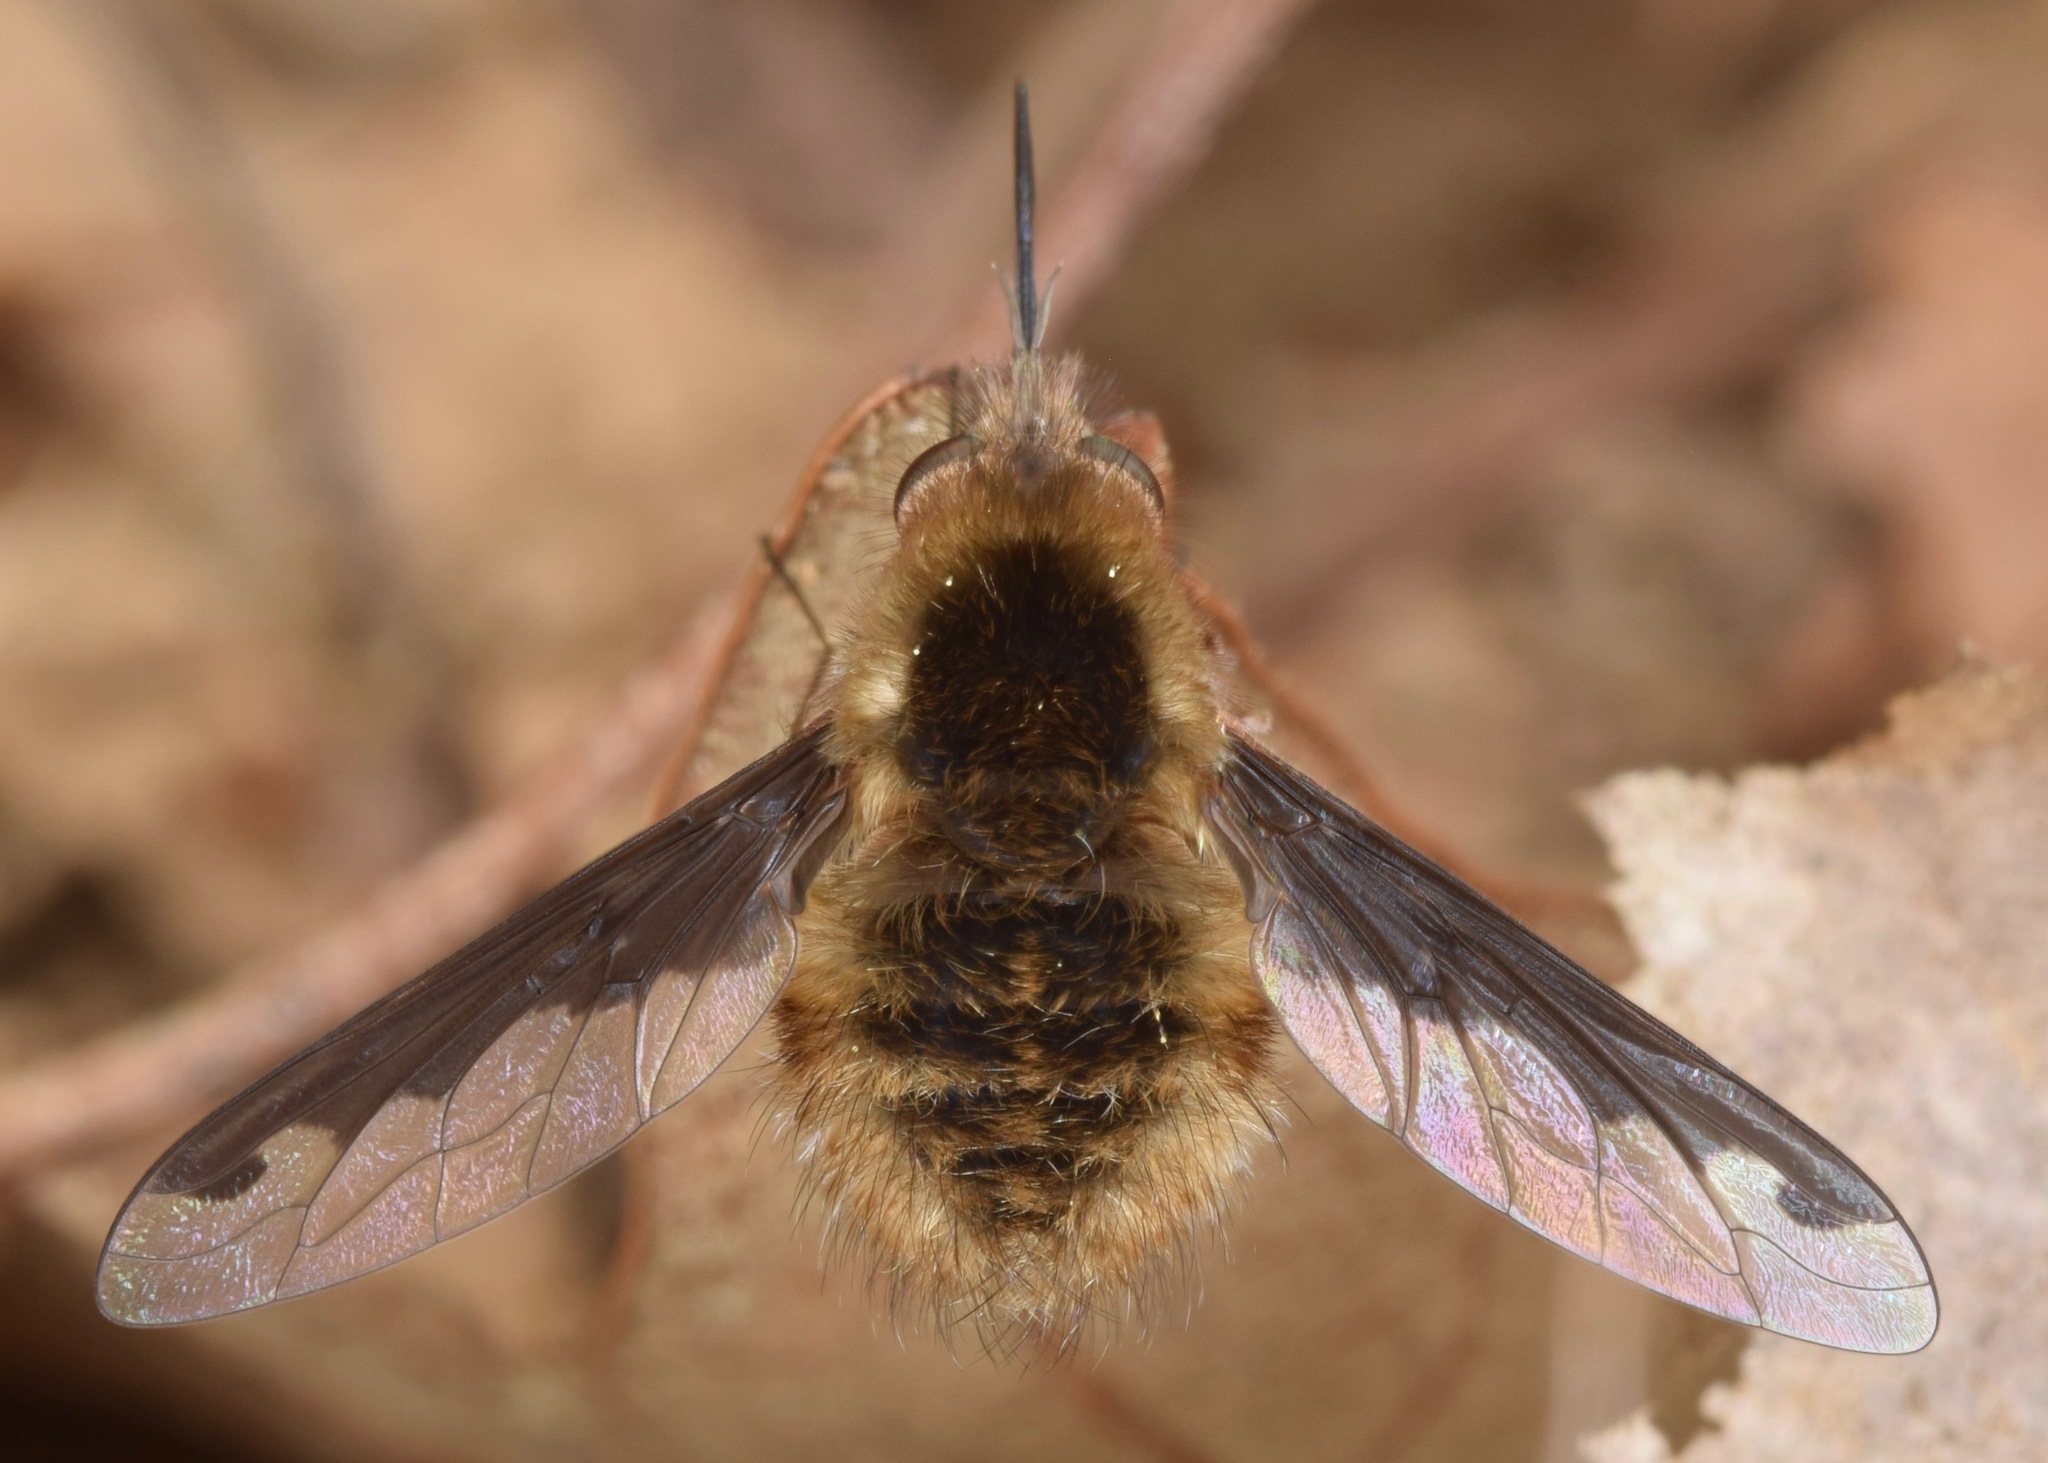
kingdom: Animalia
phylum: Arthropoda
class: Insecta
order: Diptera
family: Bombyliidae
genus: Bombylius
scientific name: Bombylius major
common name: Bee fly
